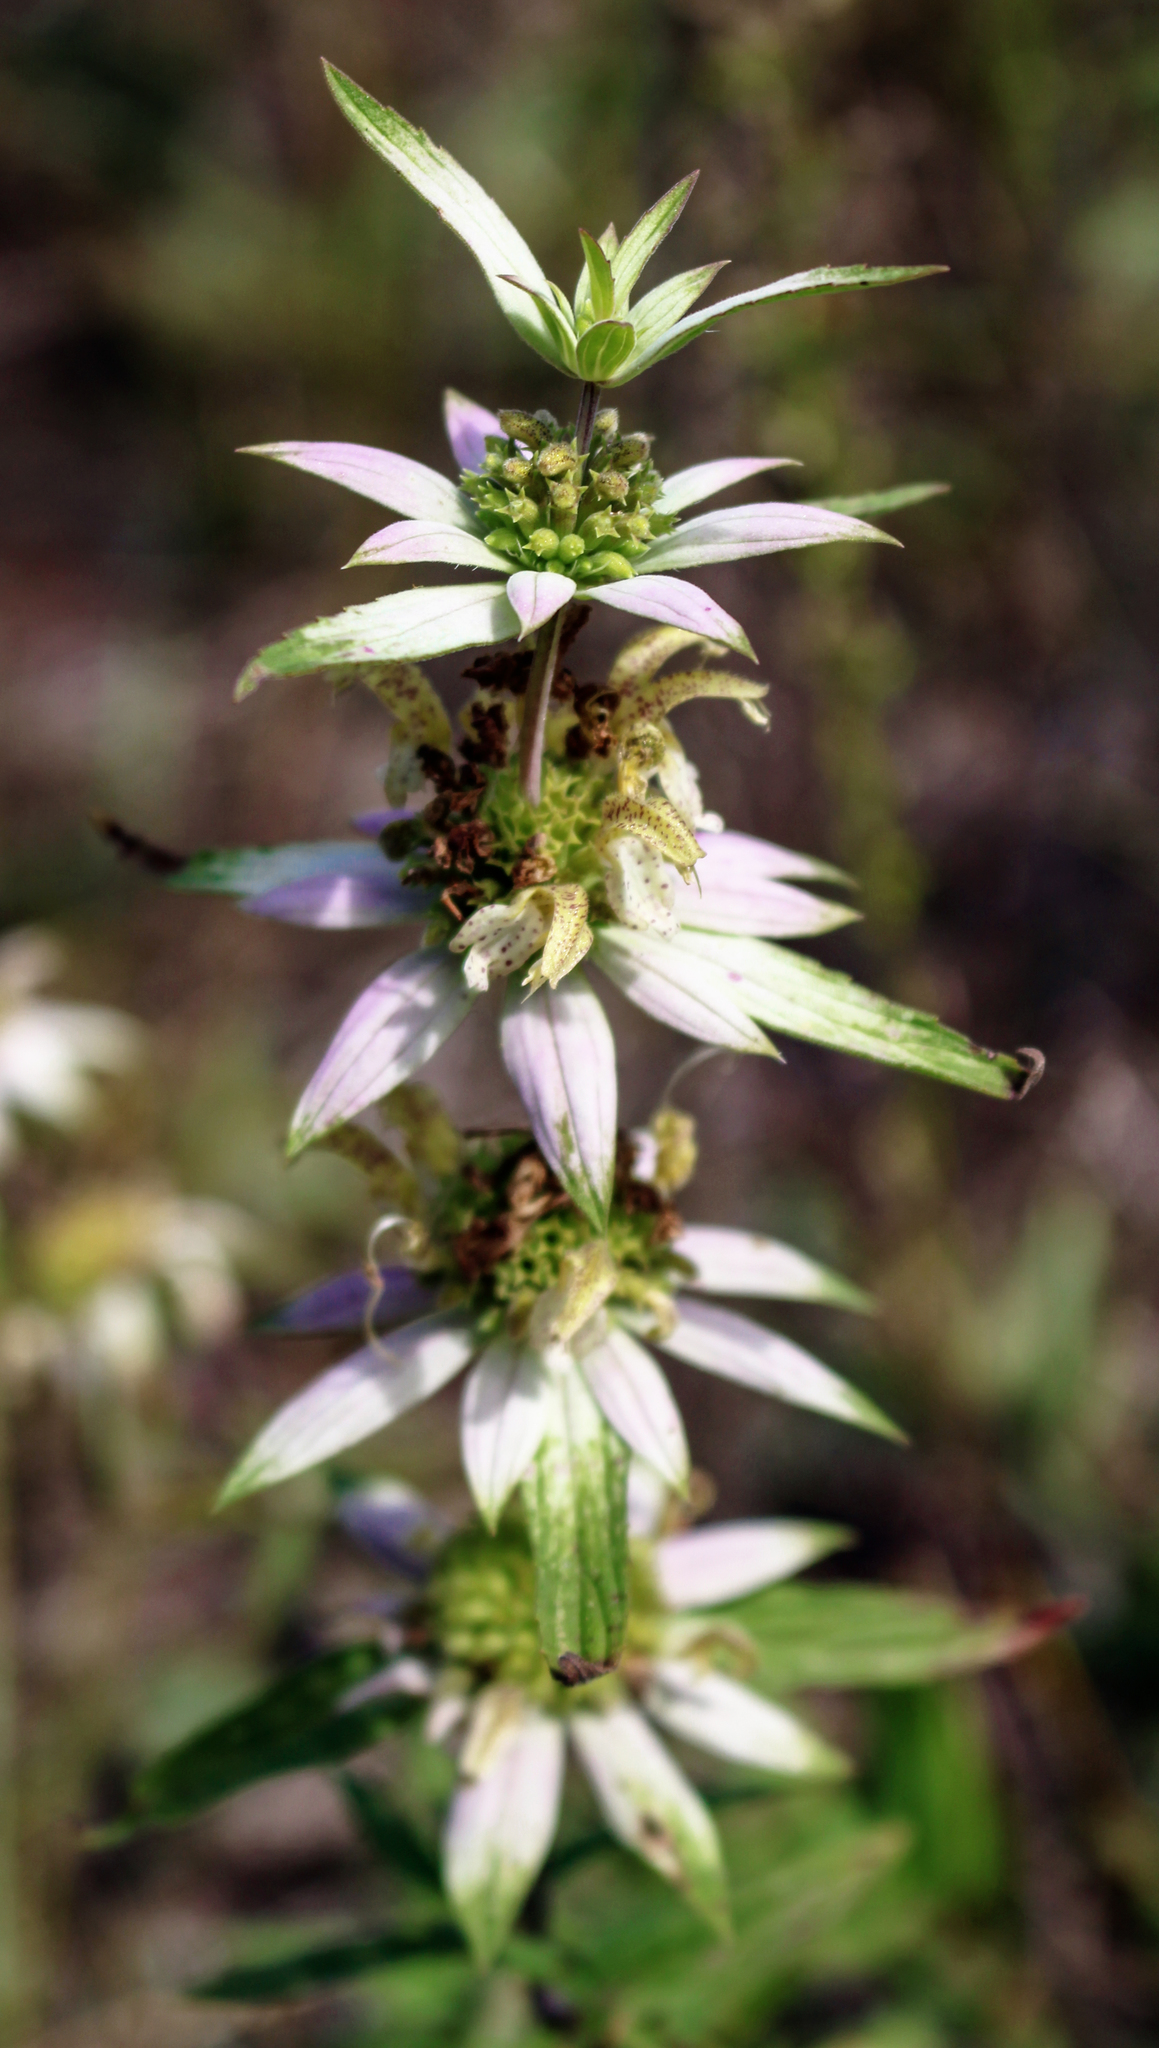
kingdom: Plantae
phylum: Tracheophyta
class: Magnoliopsida
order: Lamiales
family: Lamiaceae
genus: Monarda
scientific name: Monarda punctata
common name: Dotted monarda
